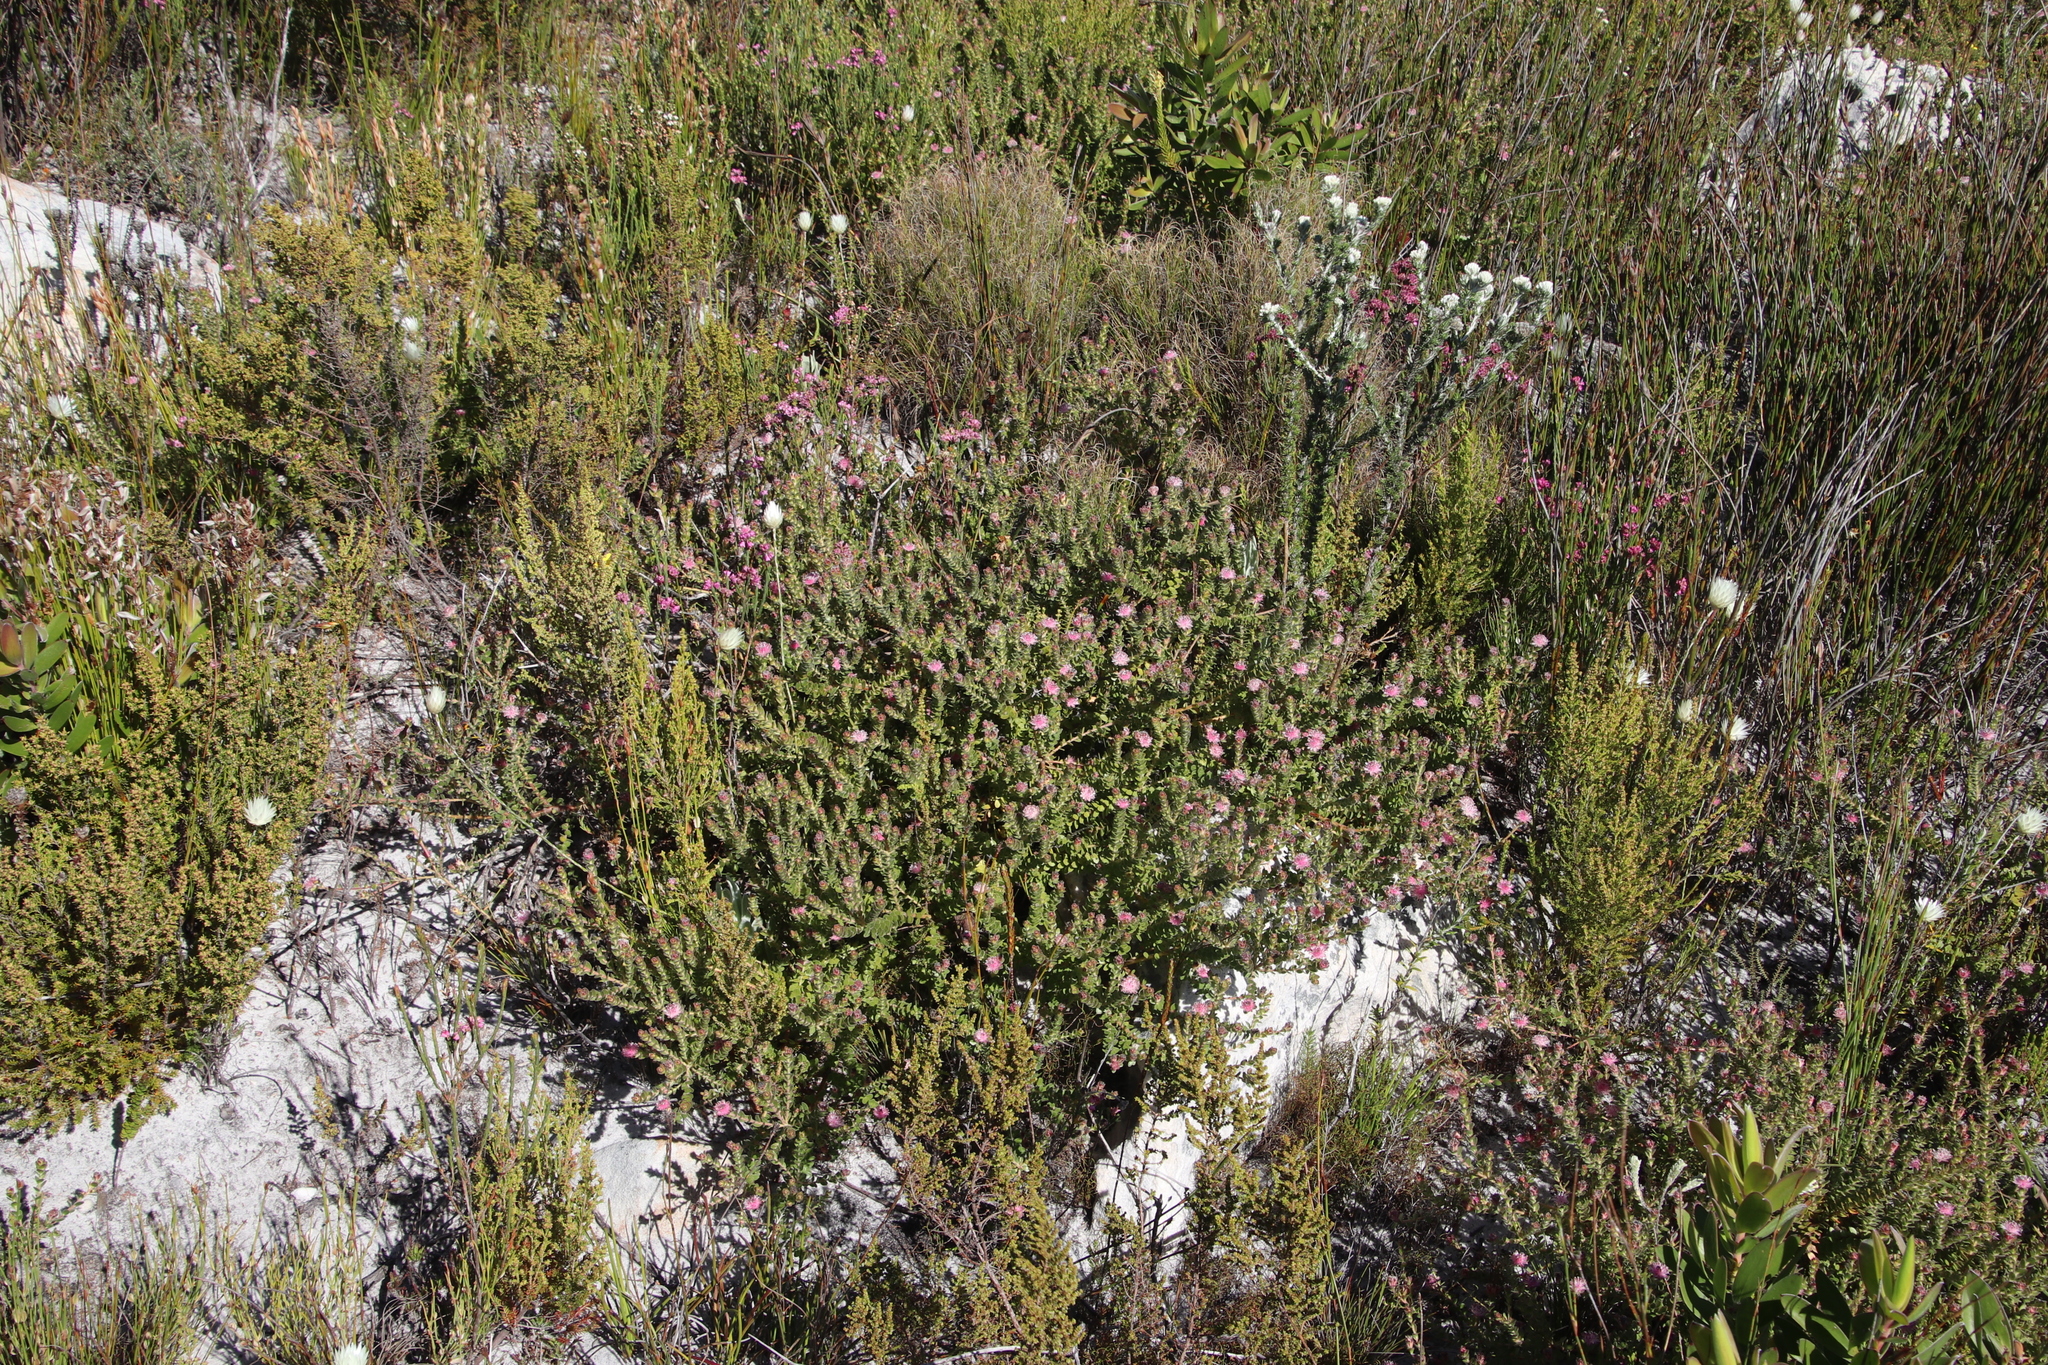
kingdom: Plantae
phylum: Tracheophyta
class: Magnoliopsida
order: Proteales
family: Proteaceae
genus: Diastella
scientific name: Diastella divaricata
